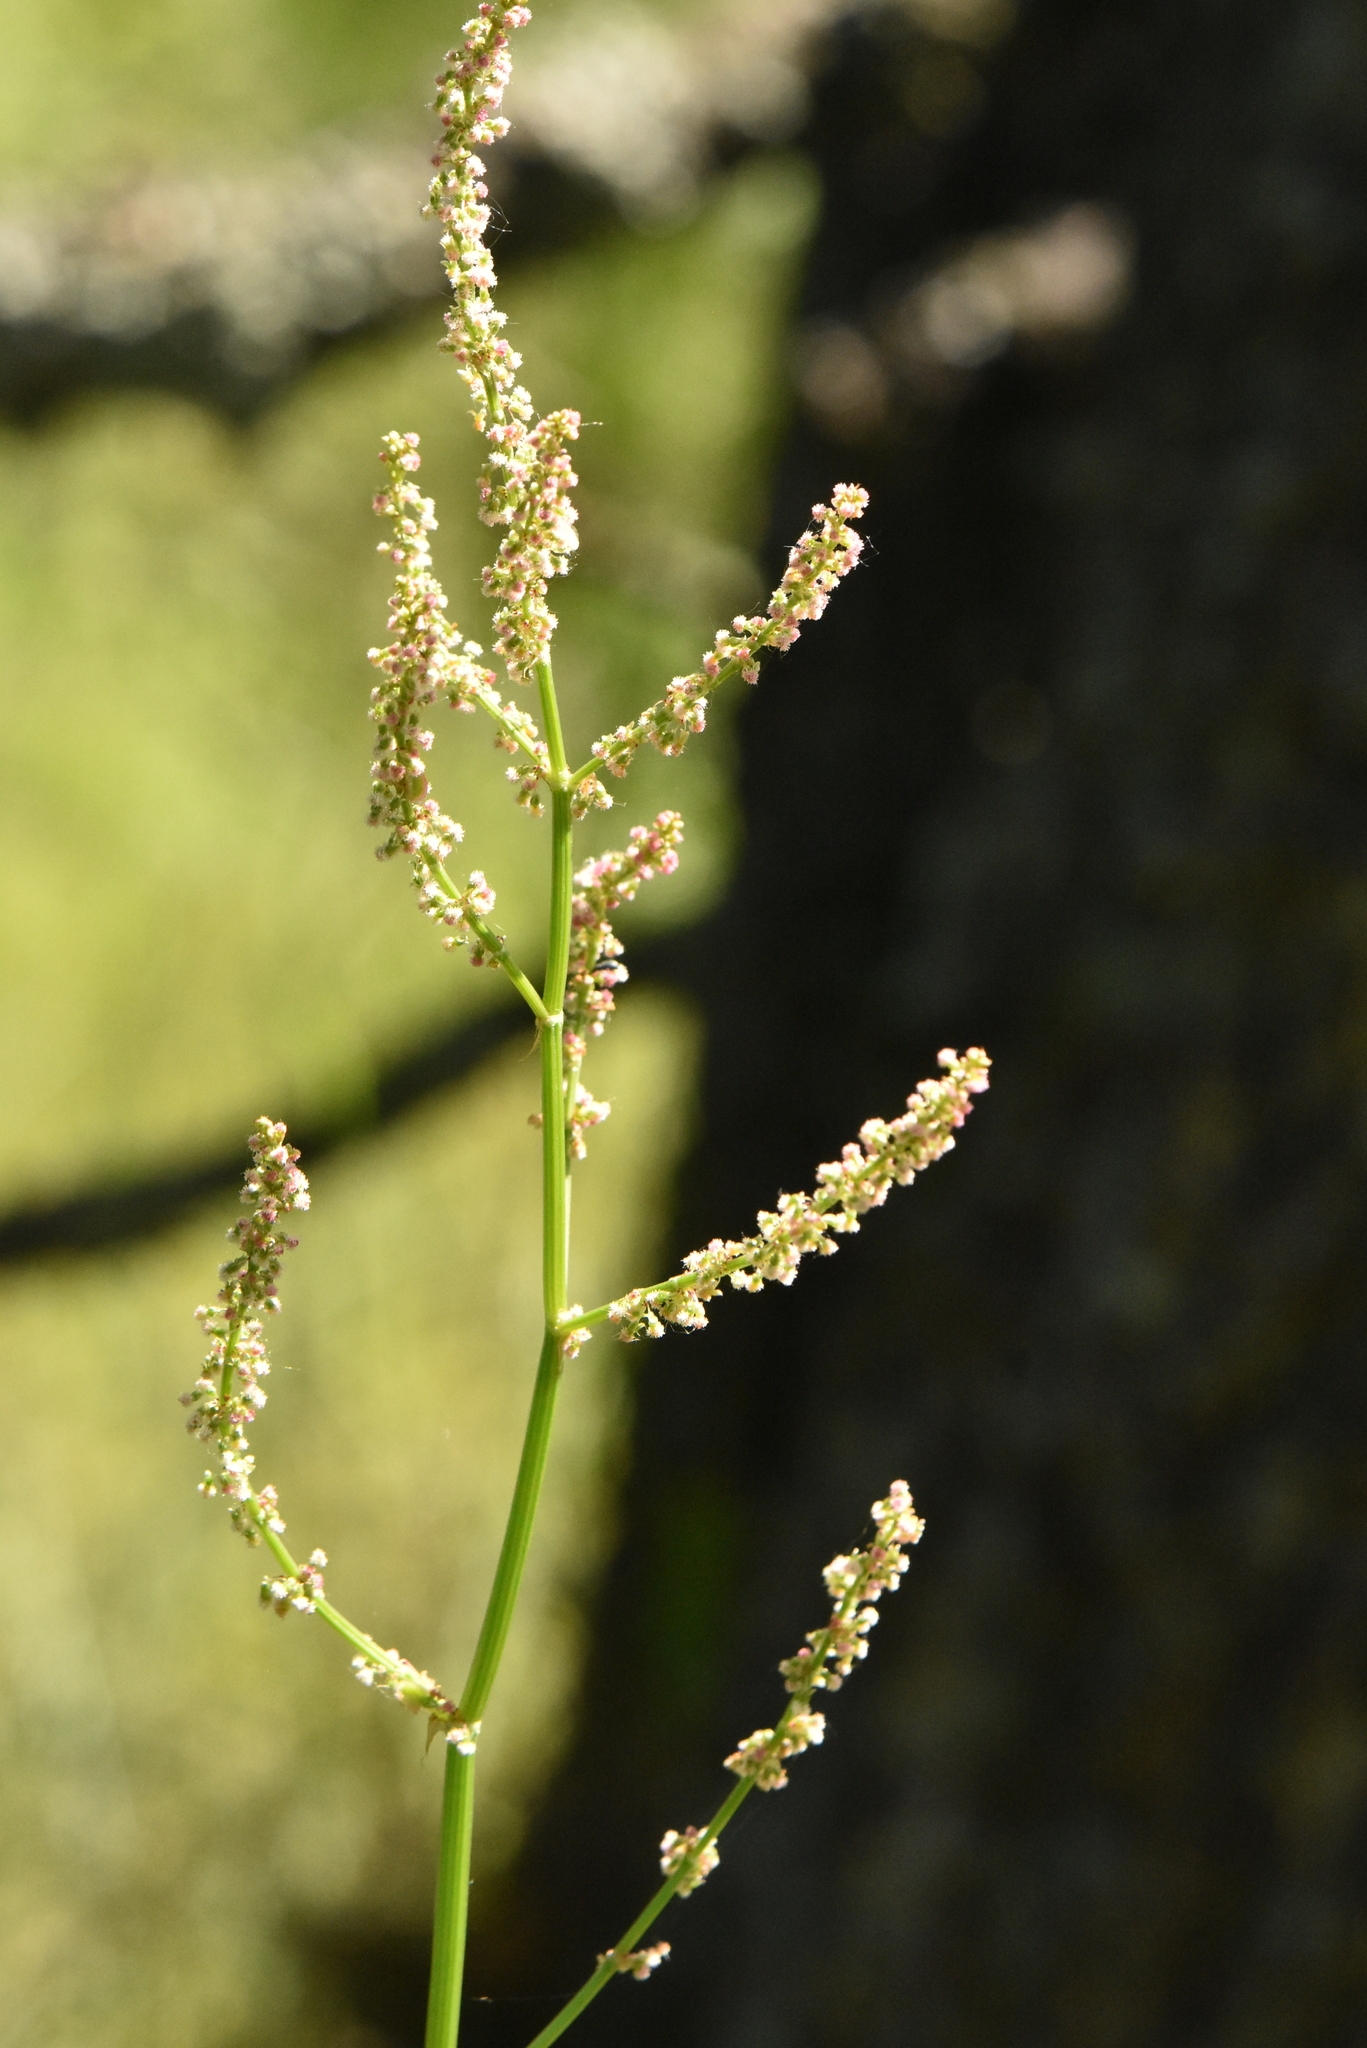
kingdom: Plantae
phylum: Tracheophyta
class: Magnoliopsida
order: Caryophyllales
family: Polygonaceae
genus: Rumex
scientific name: Rumex acetosa
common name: Garden sorrel
